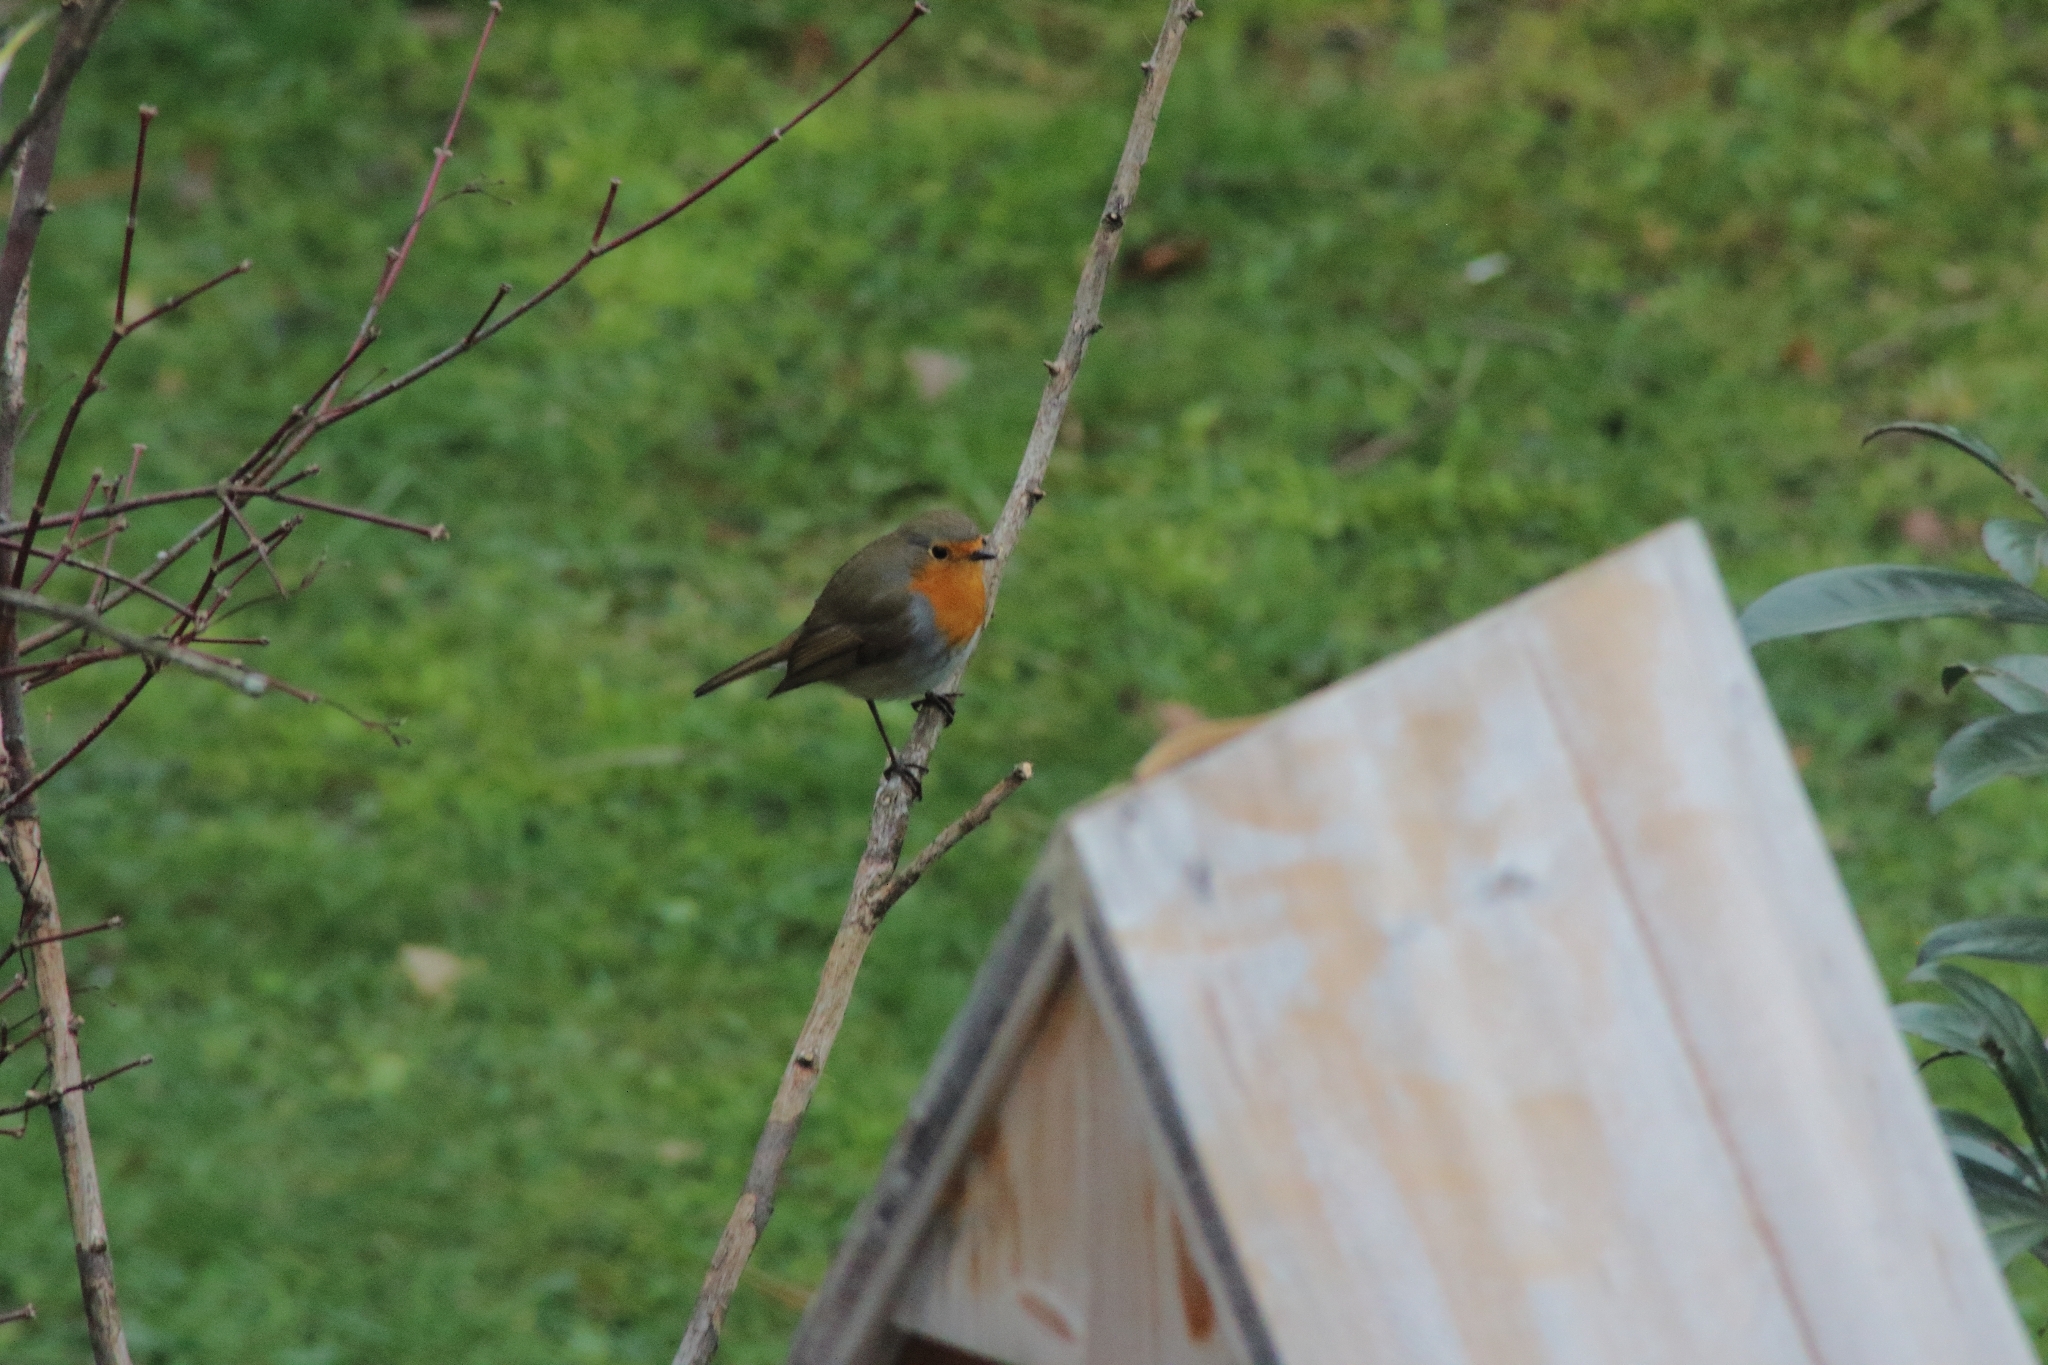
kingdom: Animalia
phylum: Chordata
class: Aves
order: Passeriformes
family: Muscicapidae
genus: Erithacus
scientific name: Erithacus rubecula
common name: European robin
